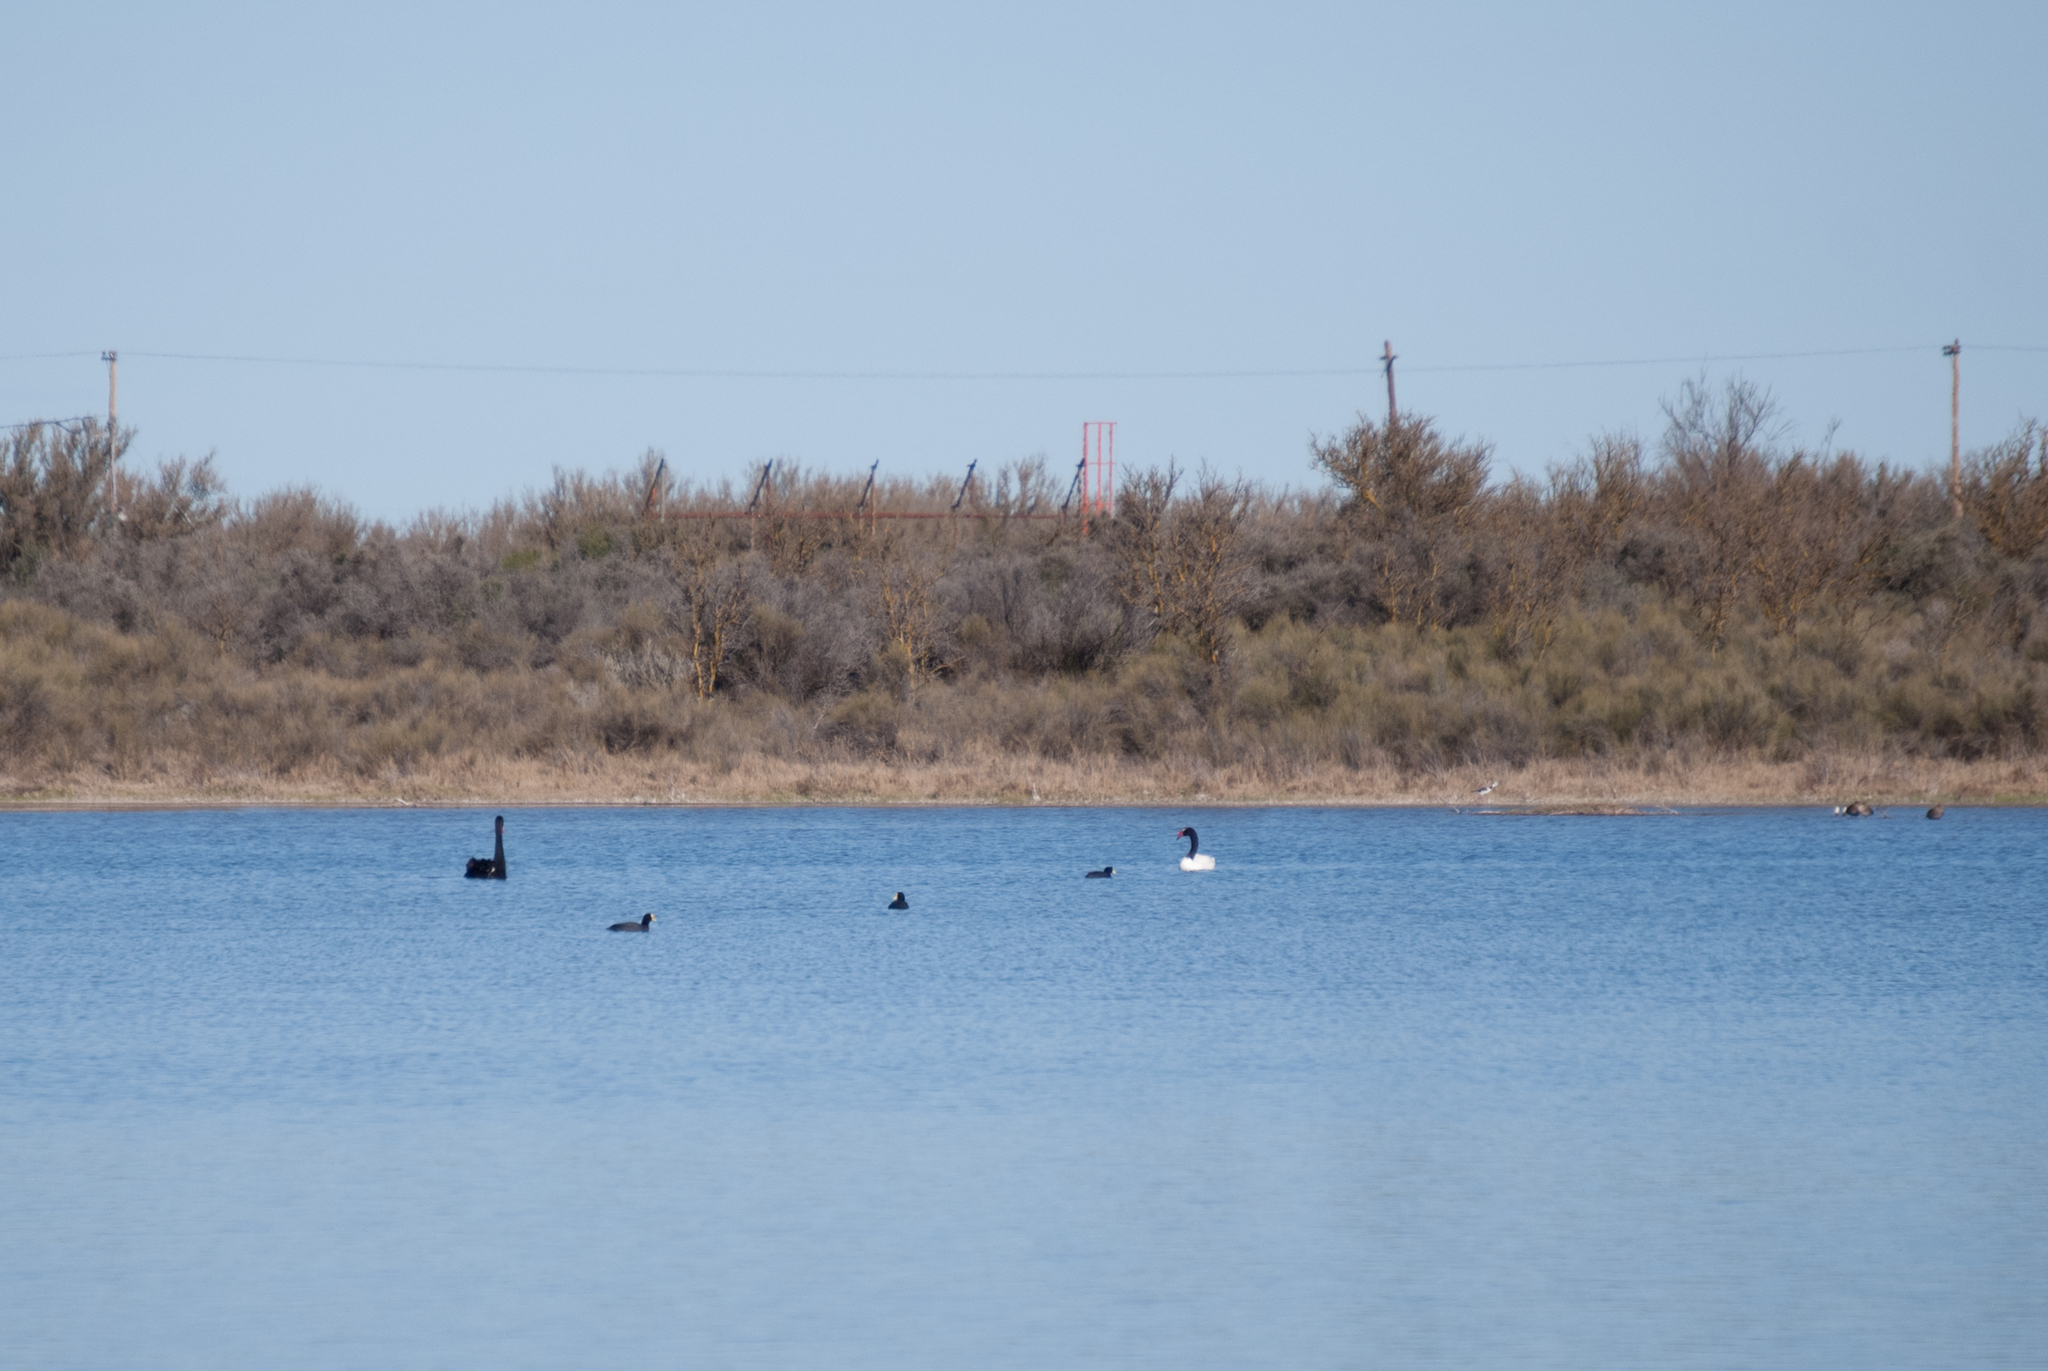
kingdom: Animalia
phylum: Chordata
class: Aves
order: Anseriformes
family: Anatidae
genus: Cygnus
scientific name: Cygnus melancoryphus
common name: Black-necked swan
